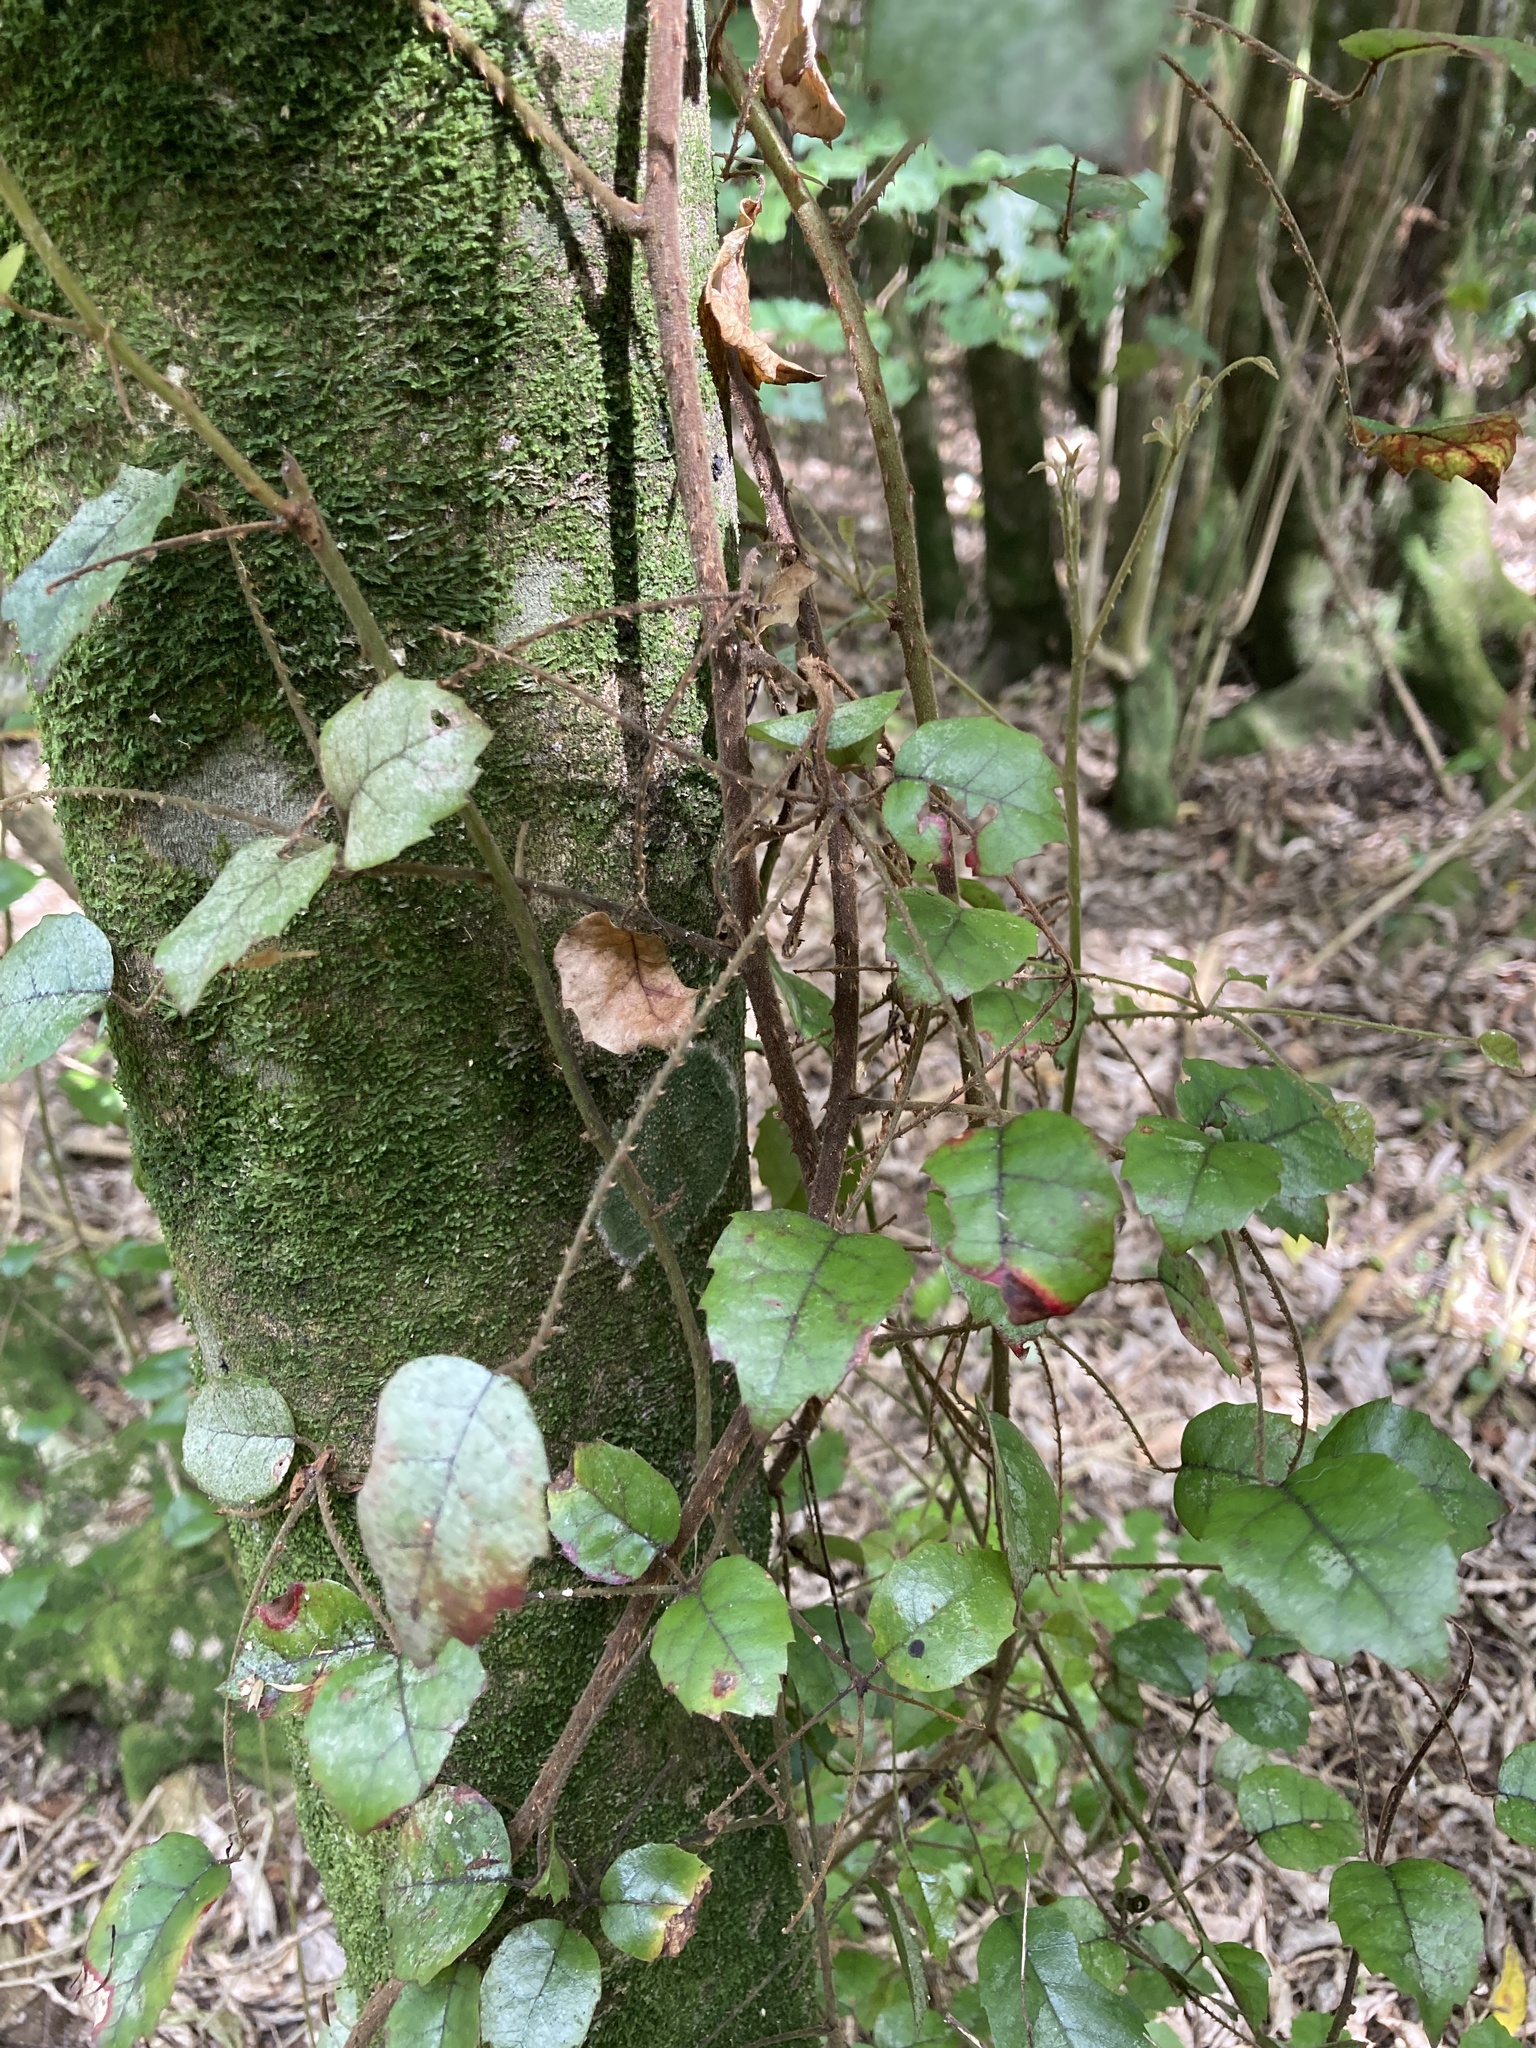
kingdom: Plantae
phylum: Tracheophyta
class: Magnoliopsida
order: Rosales
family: Rosaceae
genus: Rubus
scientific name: Rubus australis
